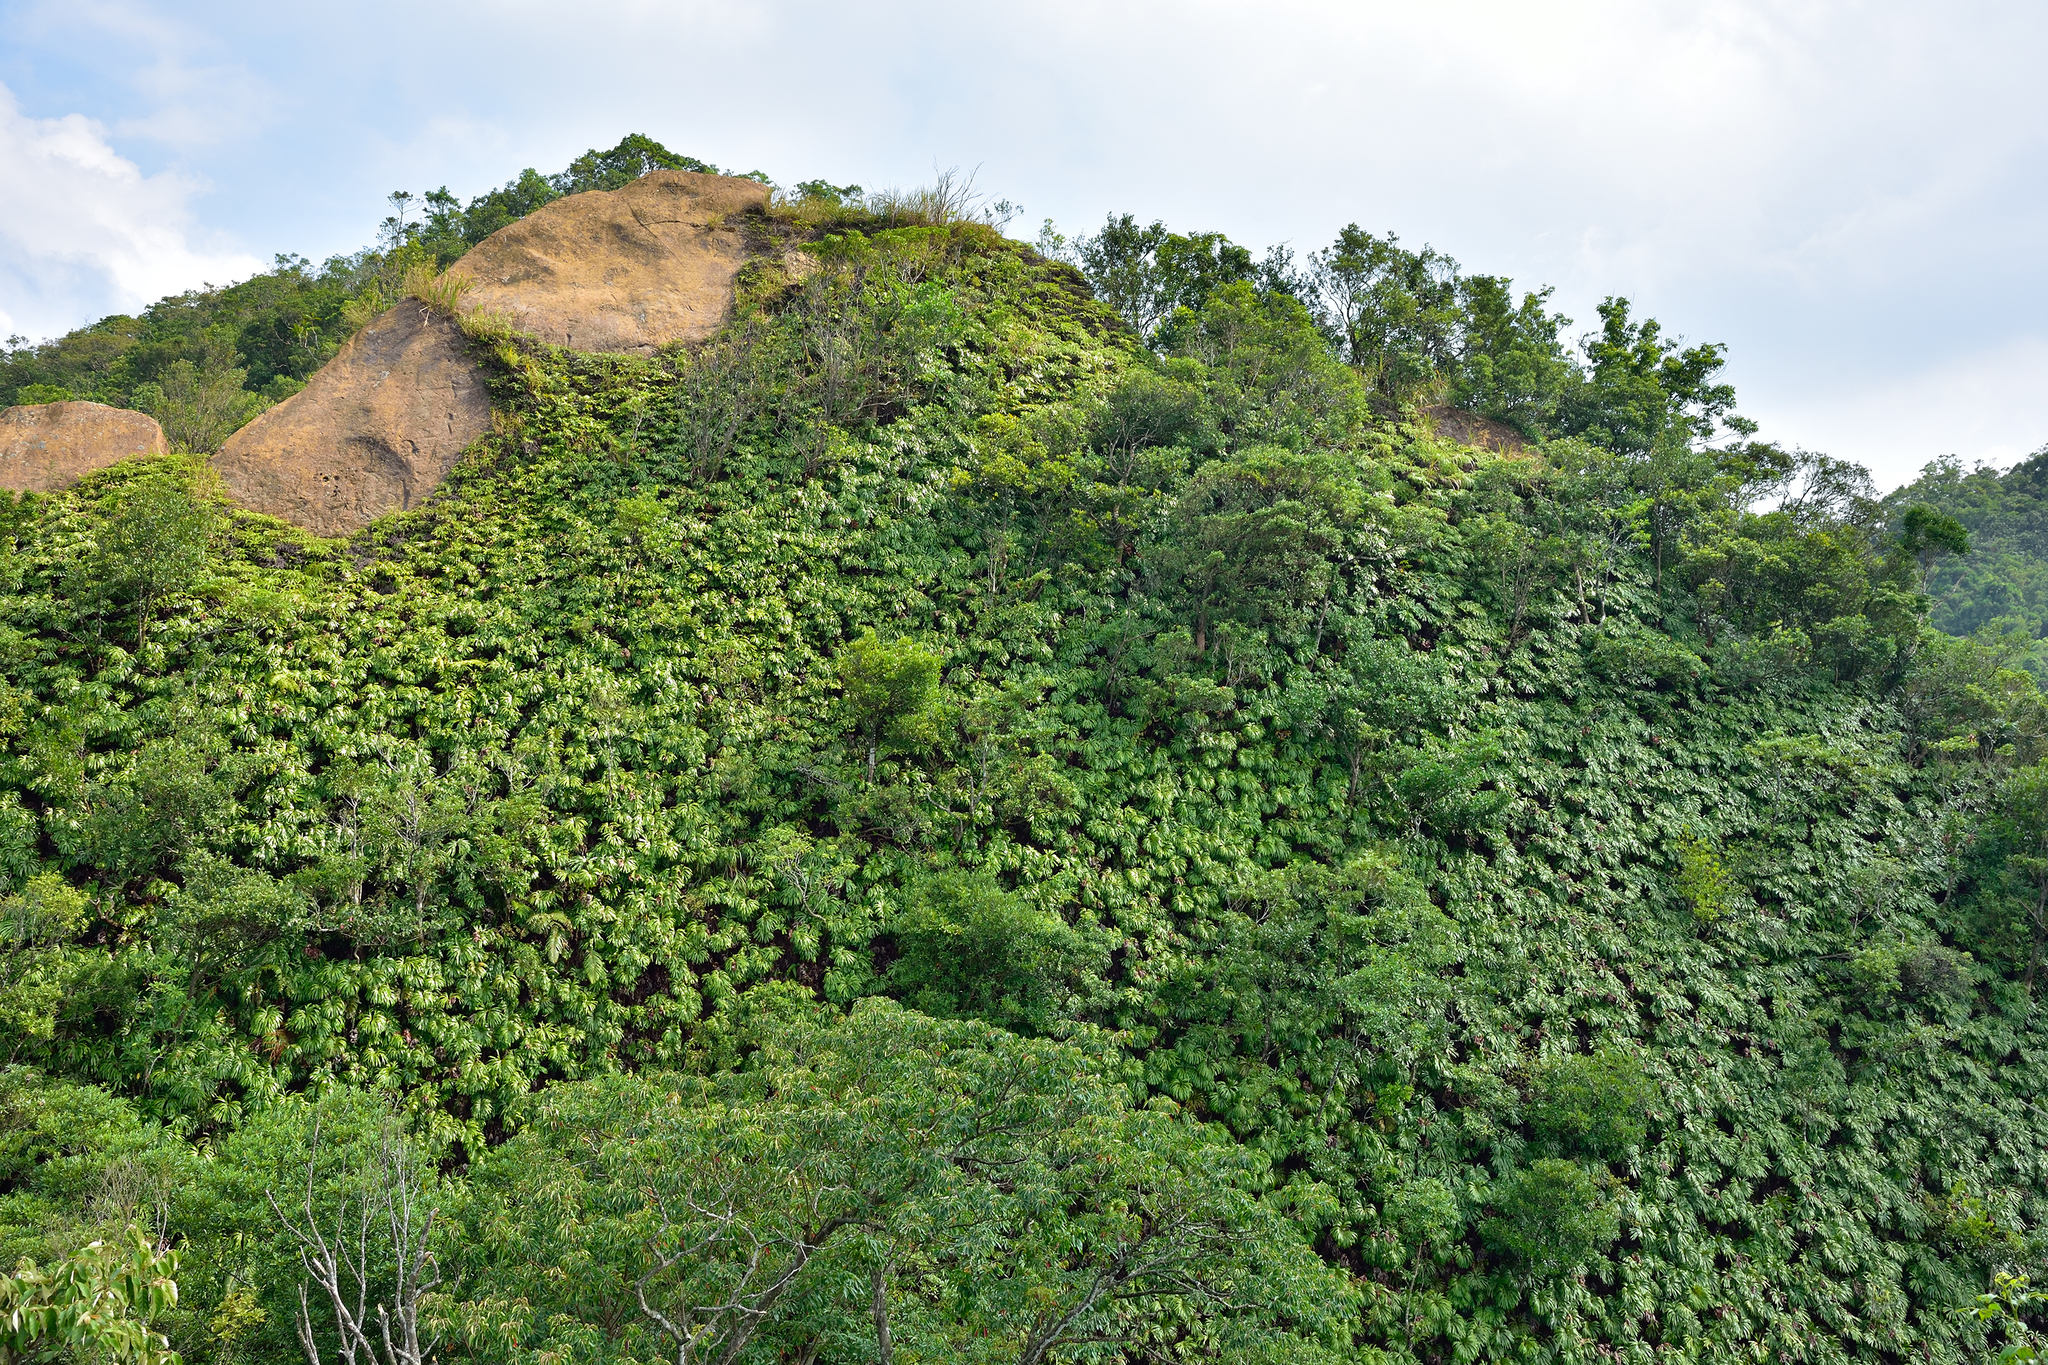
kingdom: Plantae
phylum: Tracheophyta
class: Polypodiopsida
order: Gleicheniales
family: Dipteridaceae
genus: Dipteris
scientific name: Dipteris conjugata
